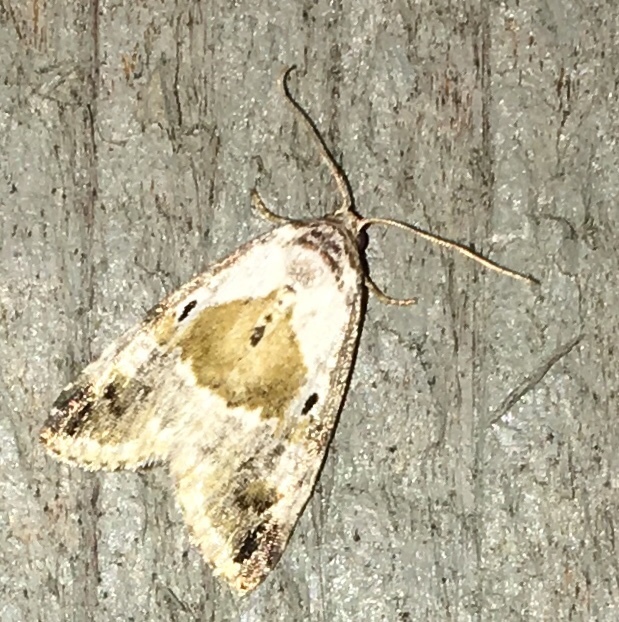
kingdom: Animalia
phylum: Arthropoda
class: Insecta
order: Lepidoptera
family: Noctuidae
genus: Maliattha
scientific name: Maliattha synochitis
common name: Black-dotted glyph
